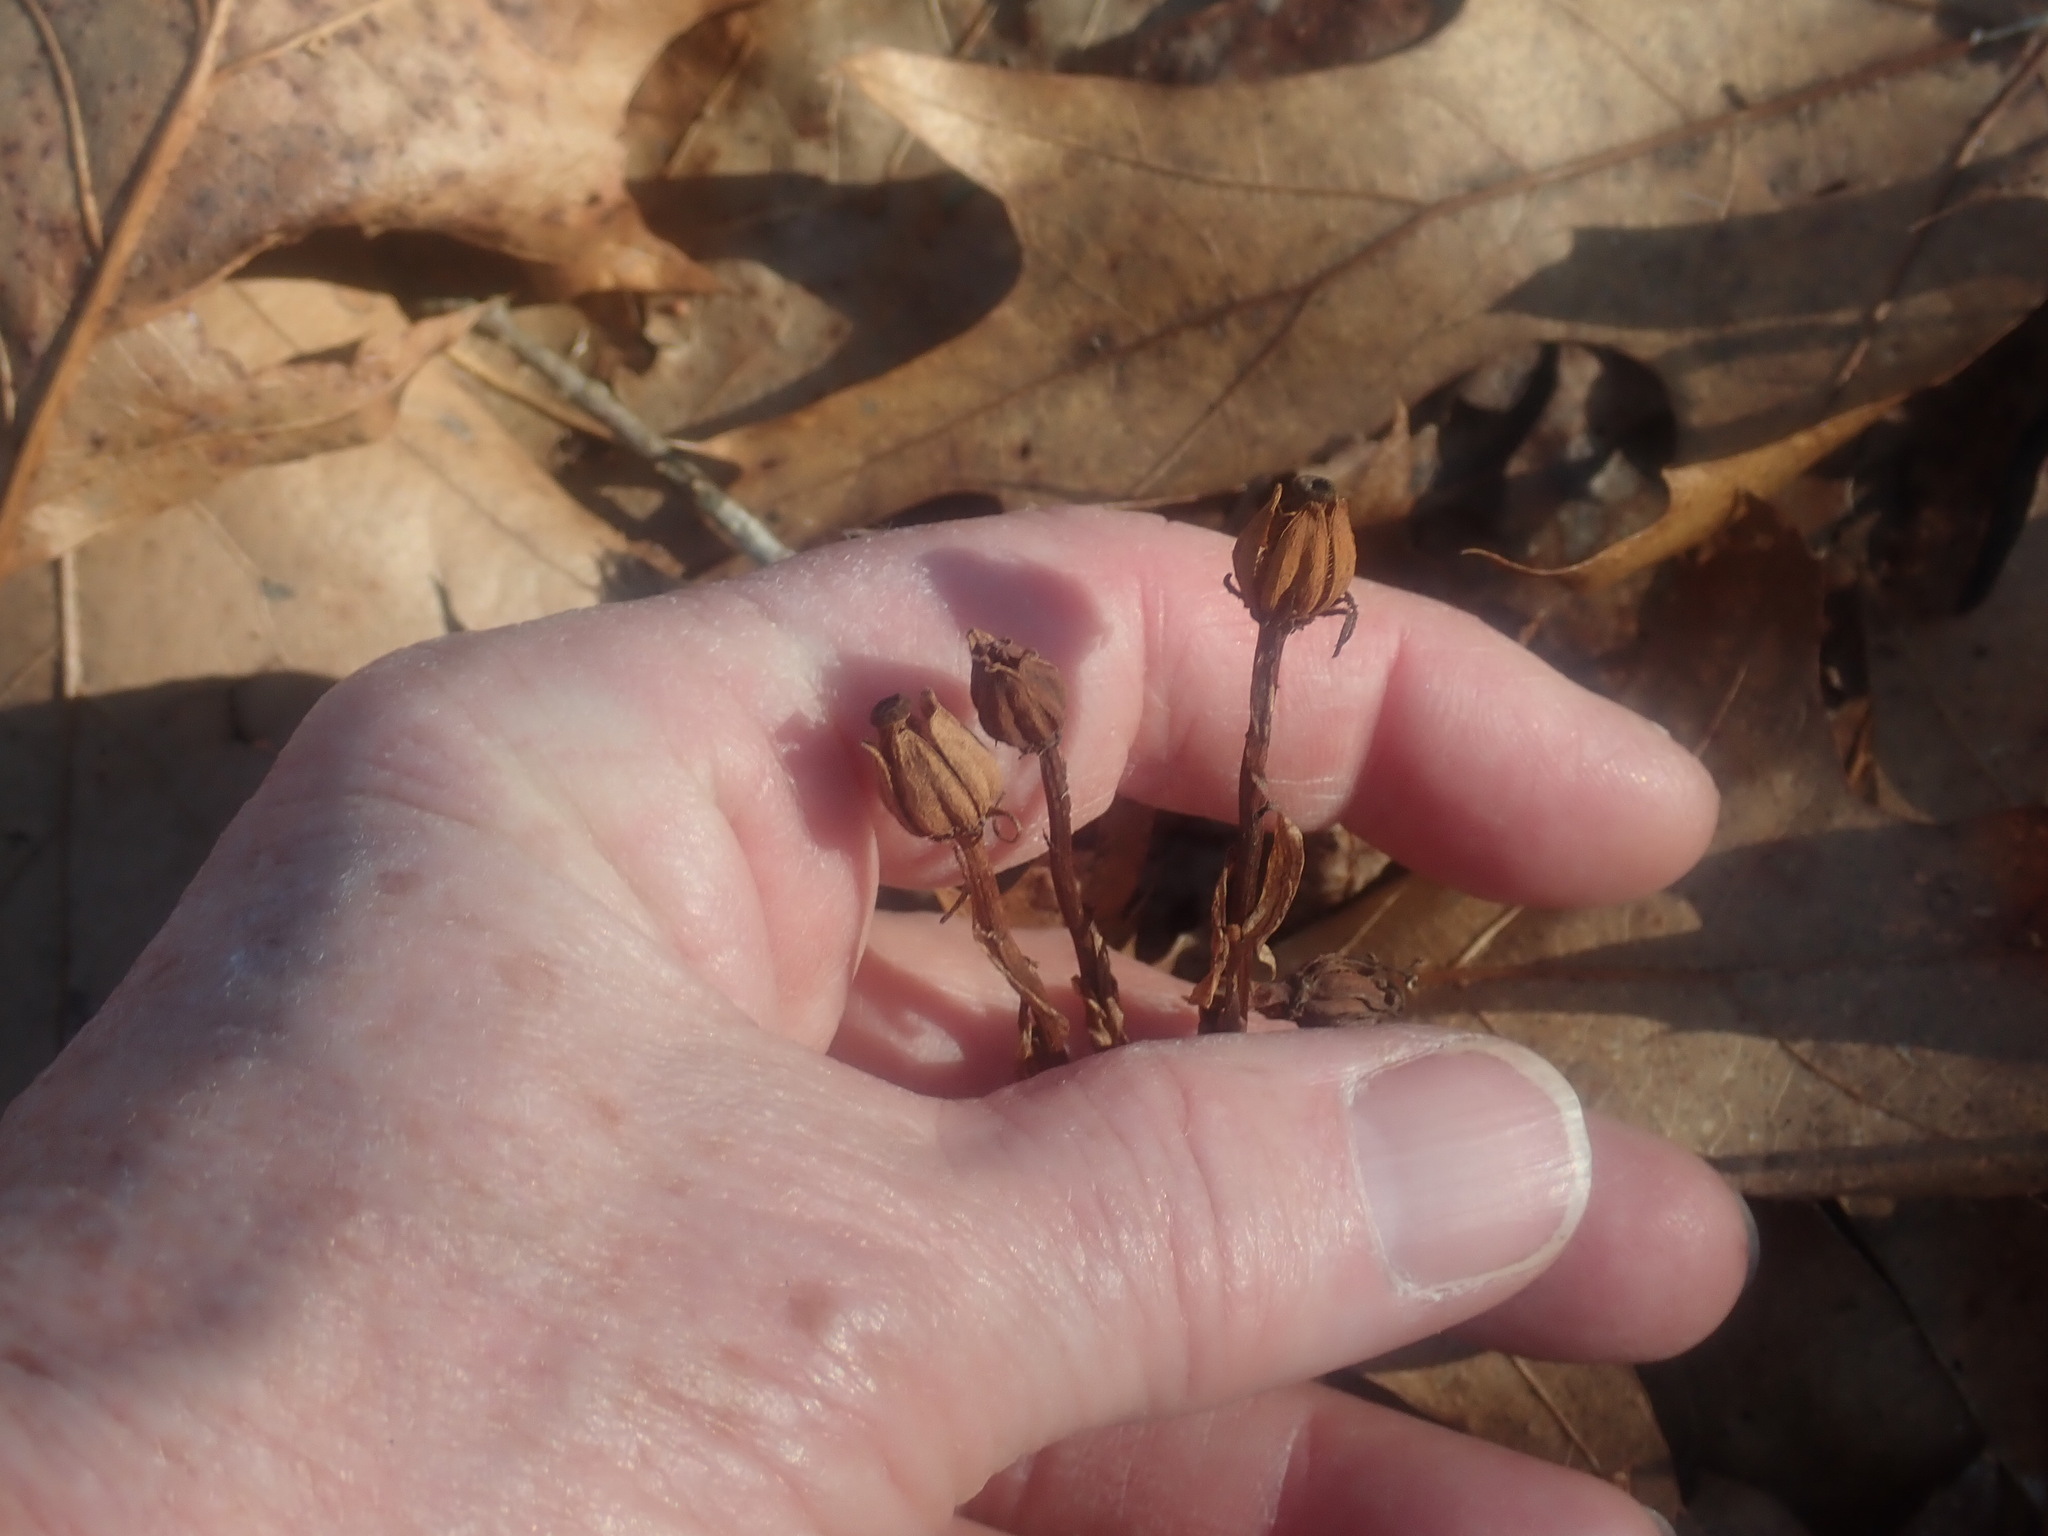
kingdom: Plantae
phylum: Tracheophyta
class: Magnoliopsida
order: Ericales
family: Ericaceae
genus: Monotropa
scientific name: Monotropa uniflora
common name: Convulsion root
